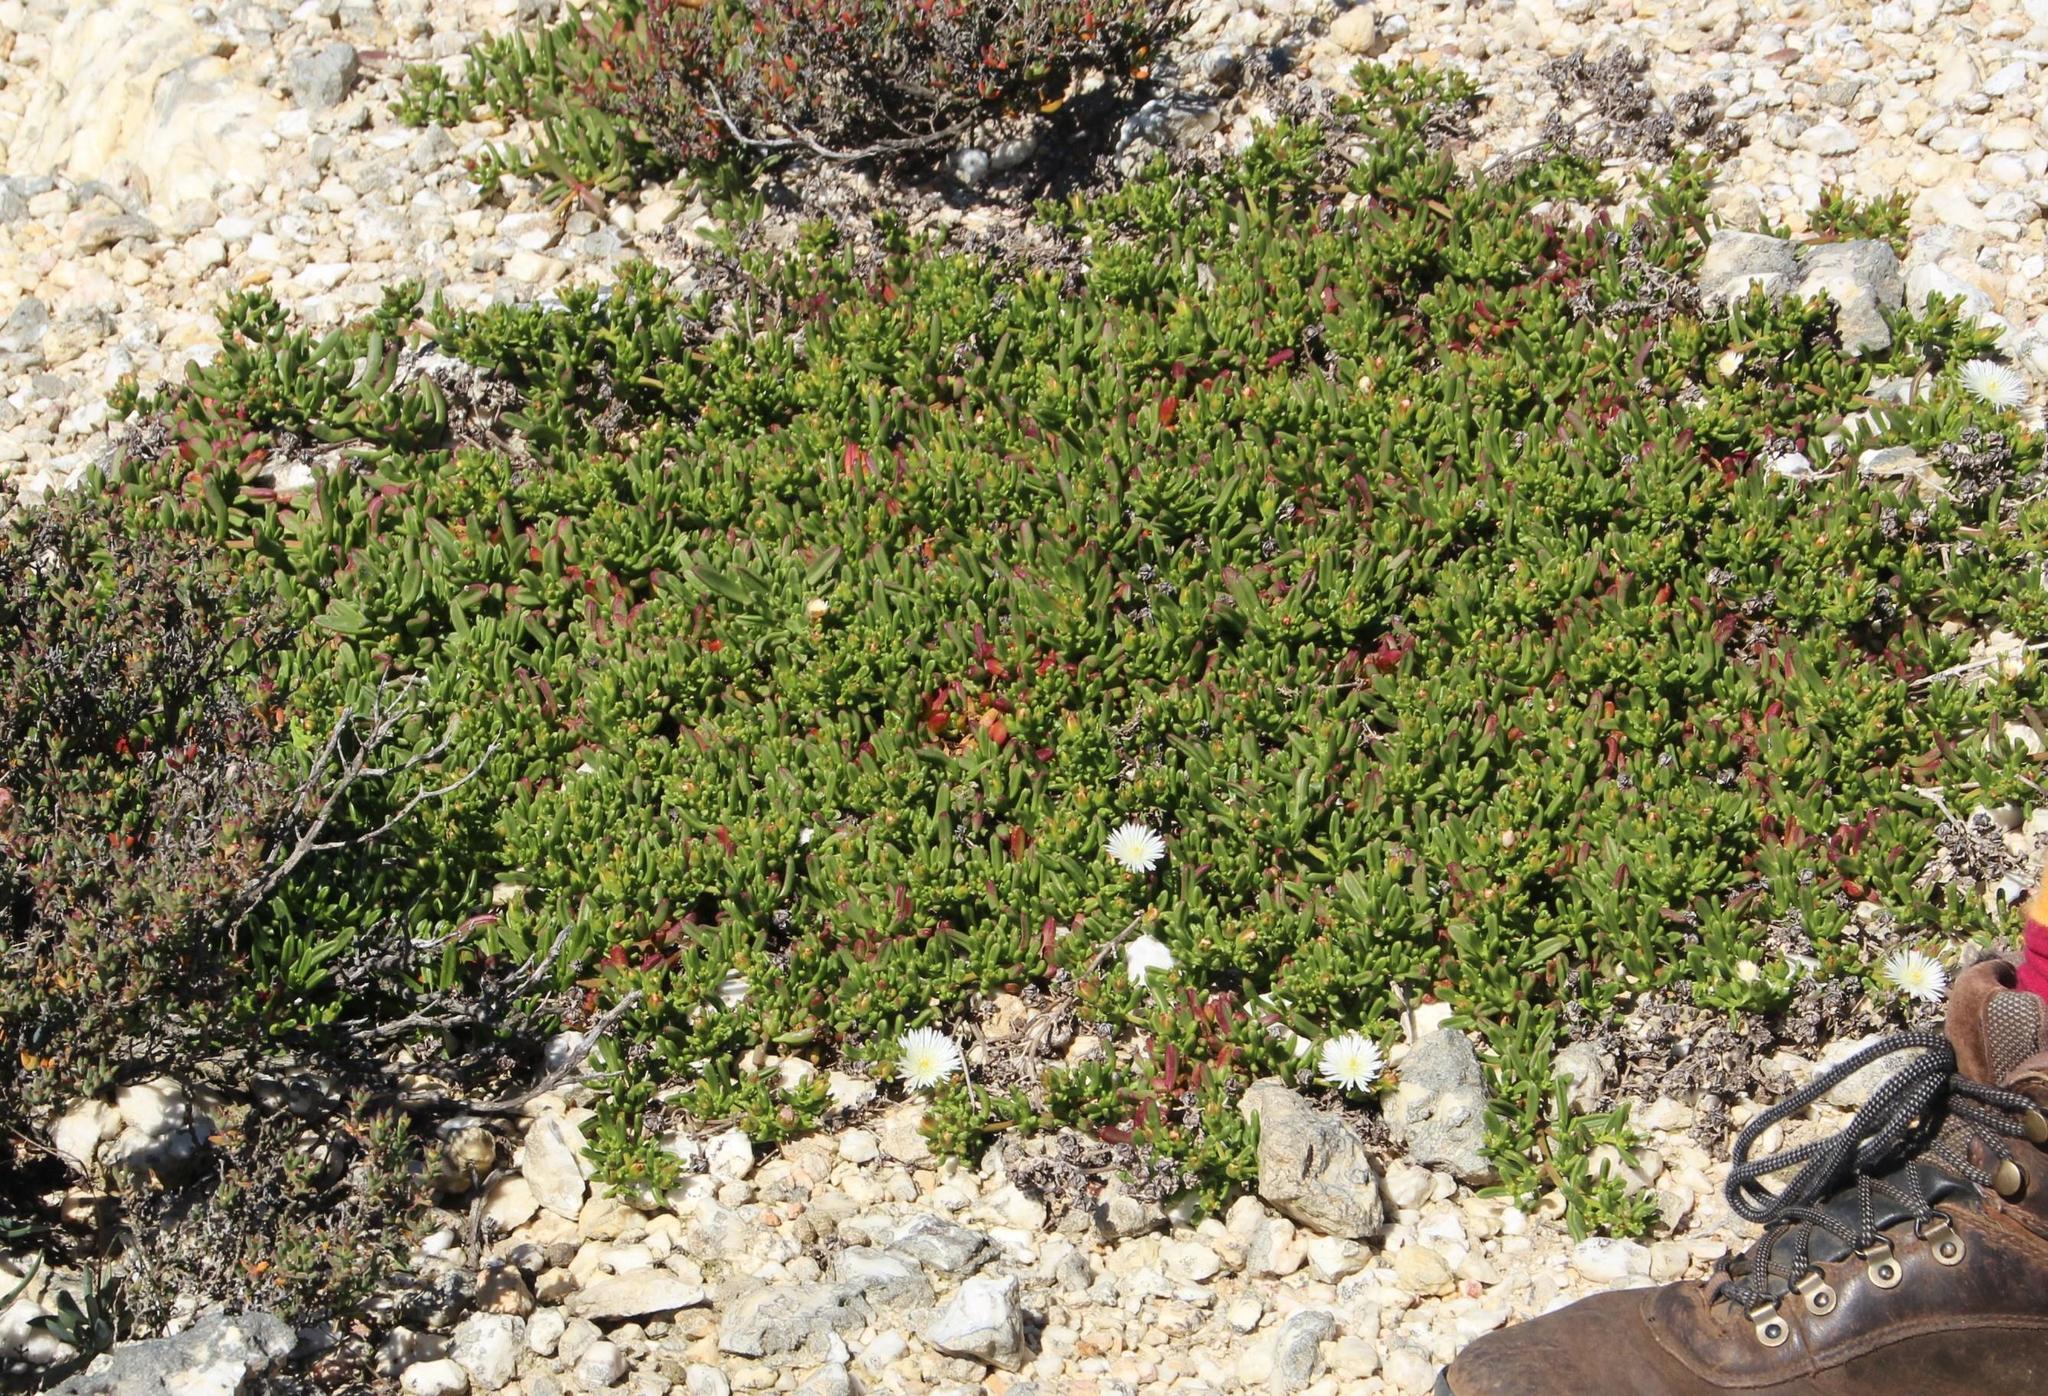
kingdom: Plantae
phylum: Tracheophyta
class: Magnoliopsida
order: Caryophyllales
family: Aizoaceae
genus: Mesembryanthemum
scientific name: Mesembryanthemum longistylum
